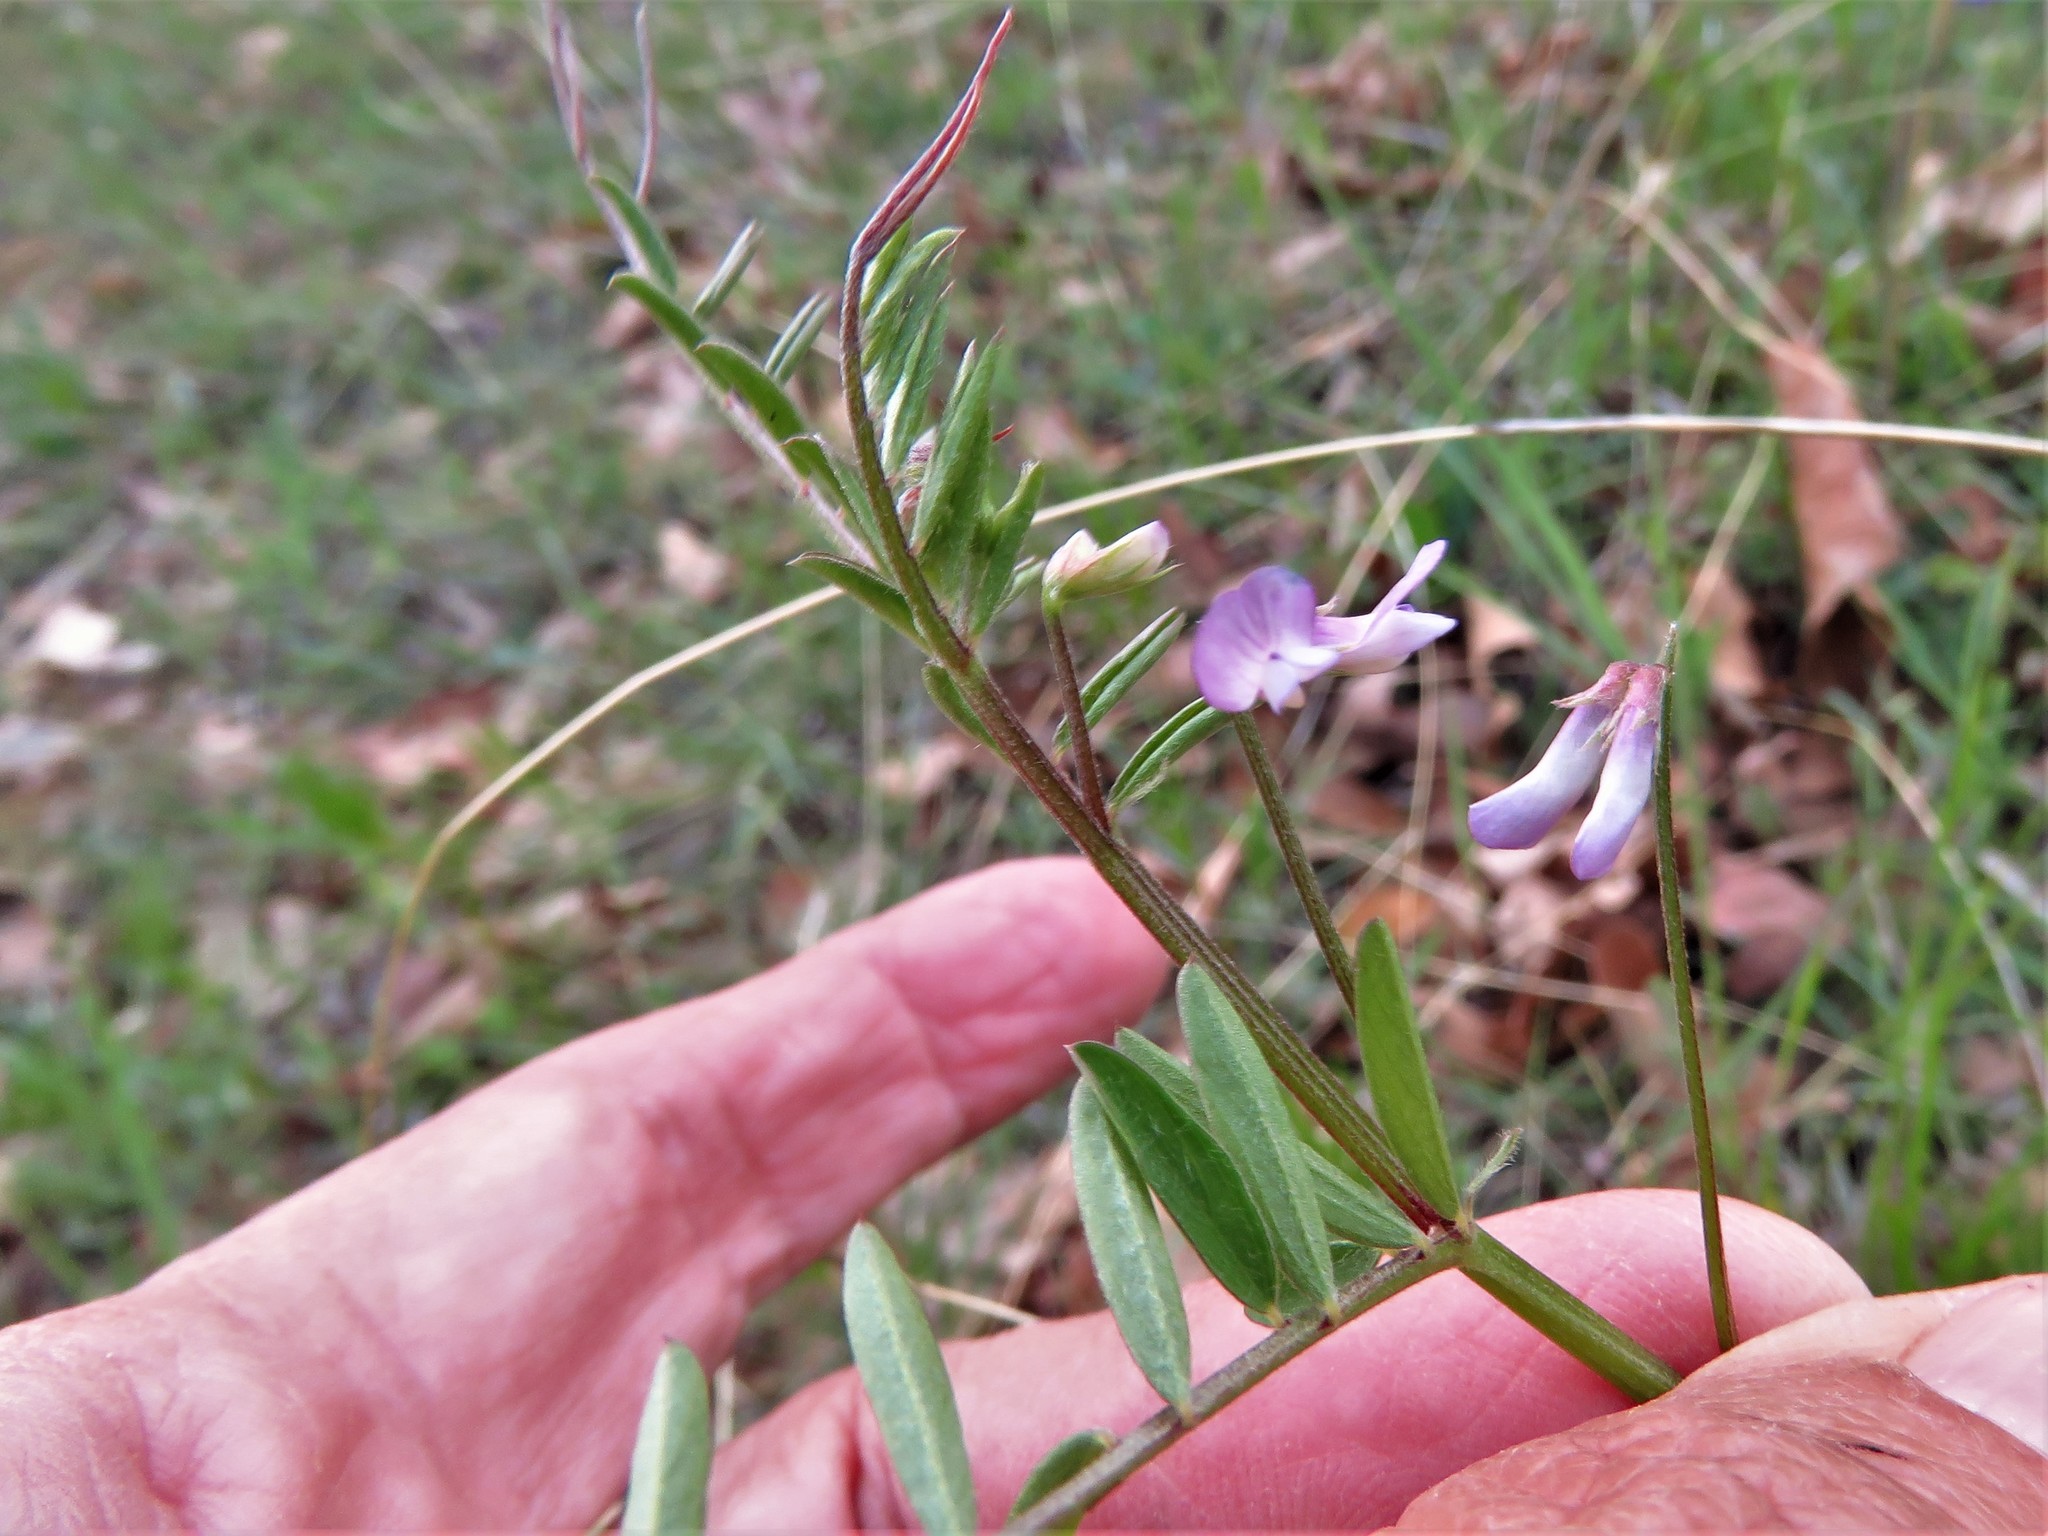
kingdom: Plantae
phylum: Tracheophyta
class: Magnoliopsida
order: Fabales
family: Fabaceae
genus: Vicia
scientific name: Vicia ludoviciana
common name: Louisiana vetch
